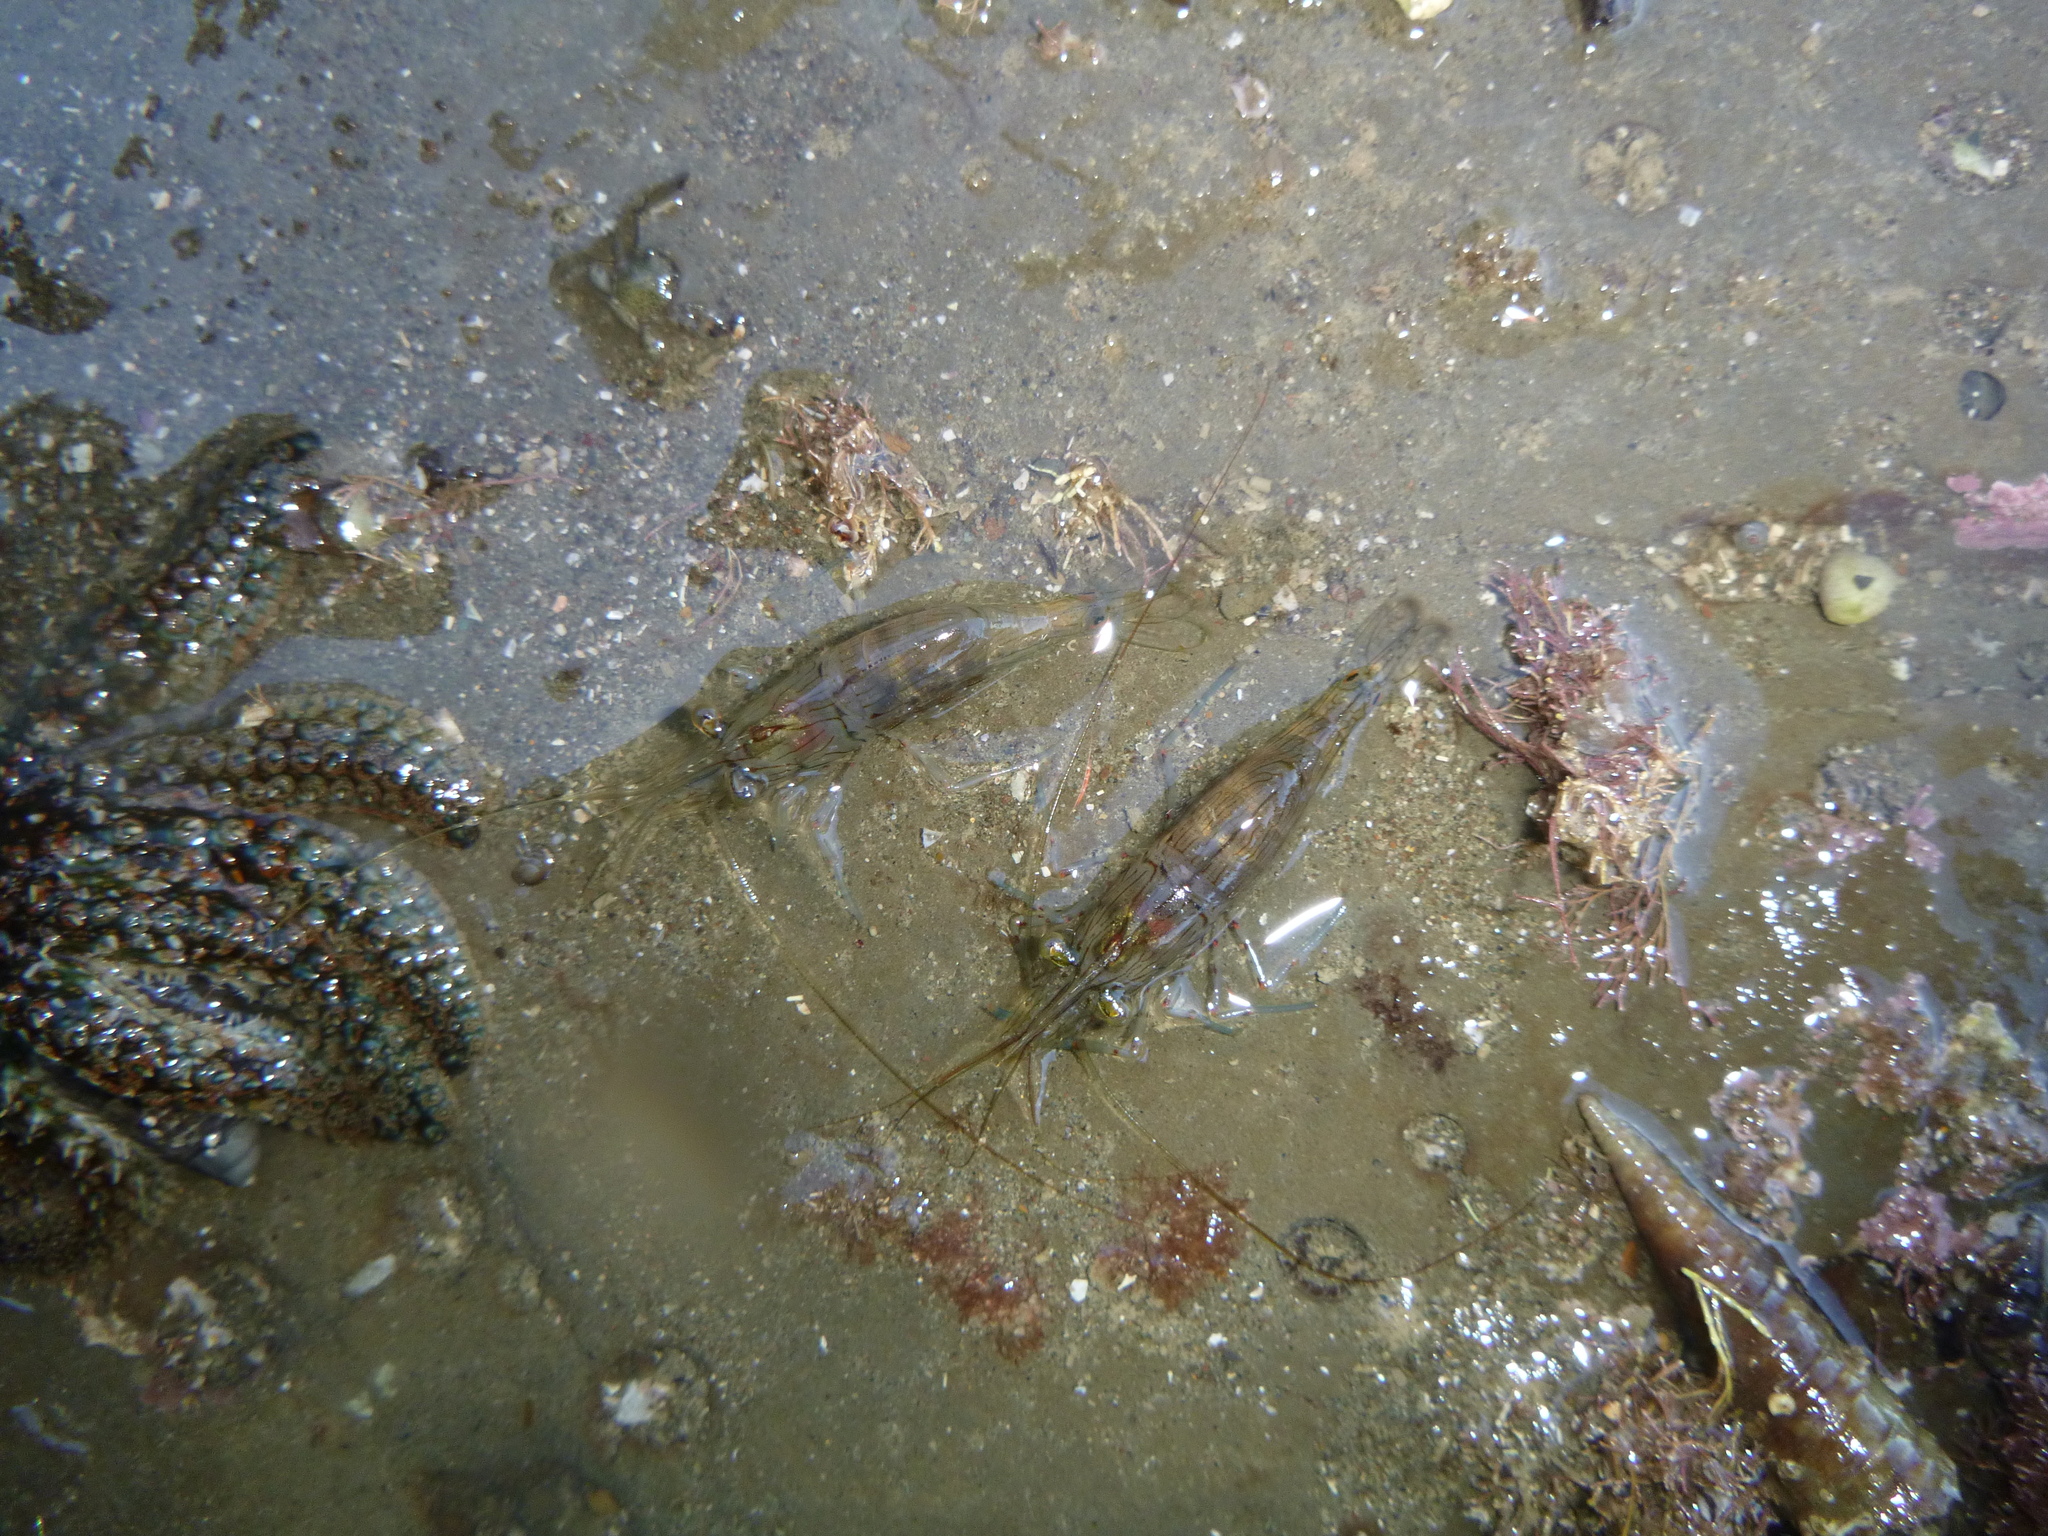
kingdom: Animalia
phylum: Arthropoda
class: Malacostraca
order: Decapoda
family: Palaemonidae
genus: Palaemon
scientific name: Palaemon affinis
